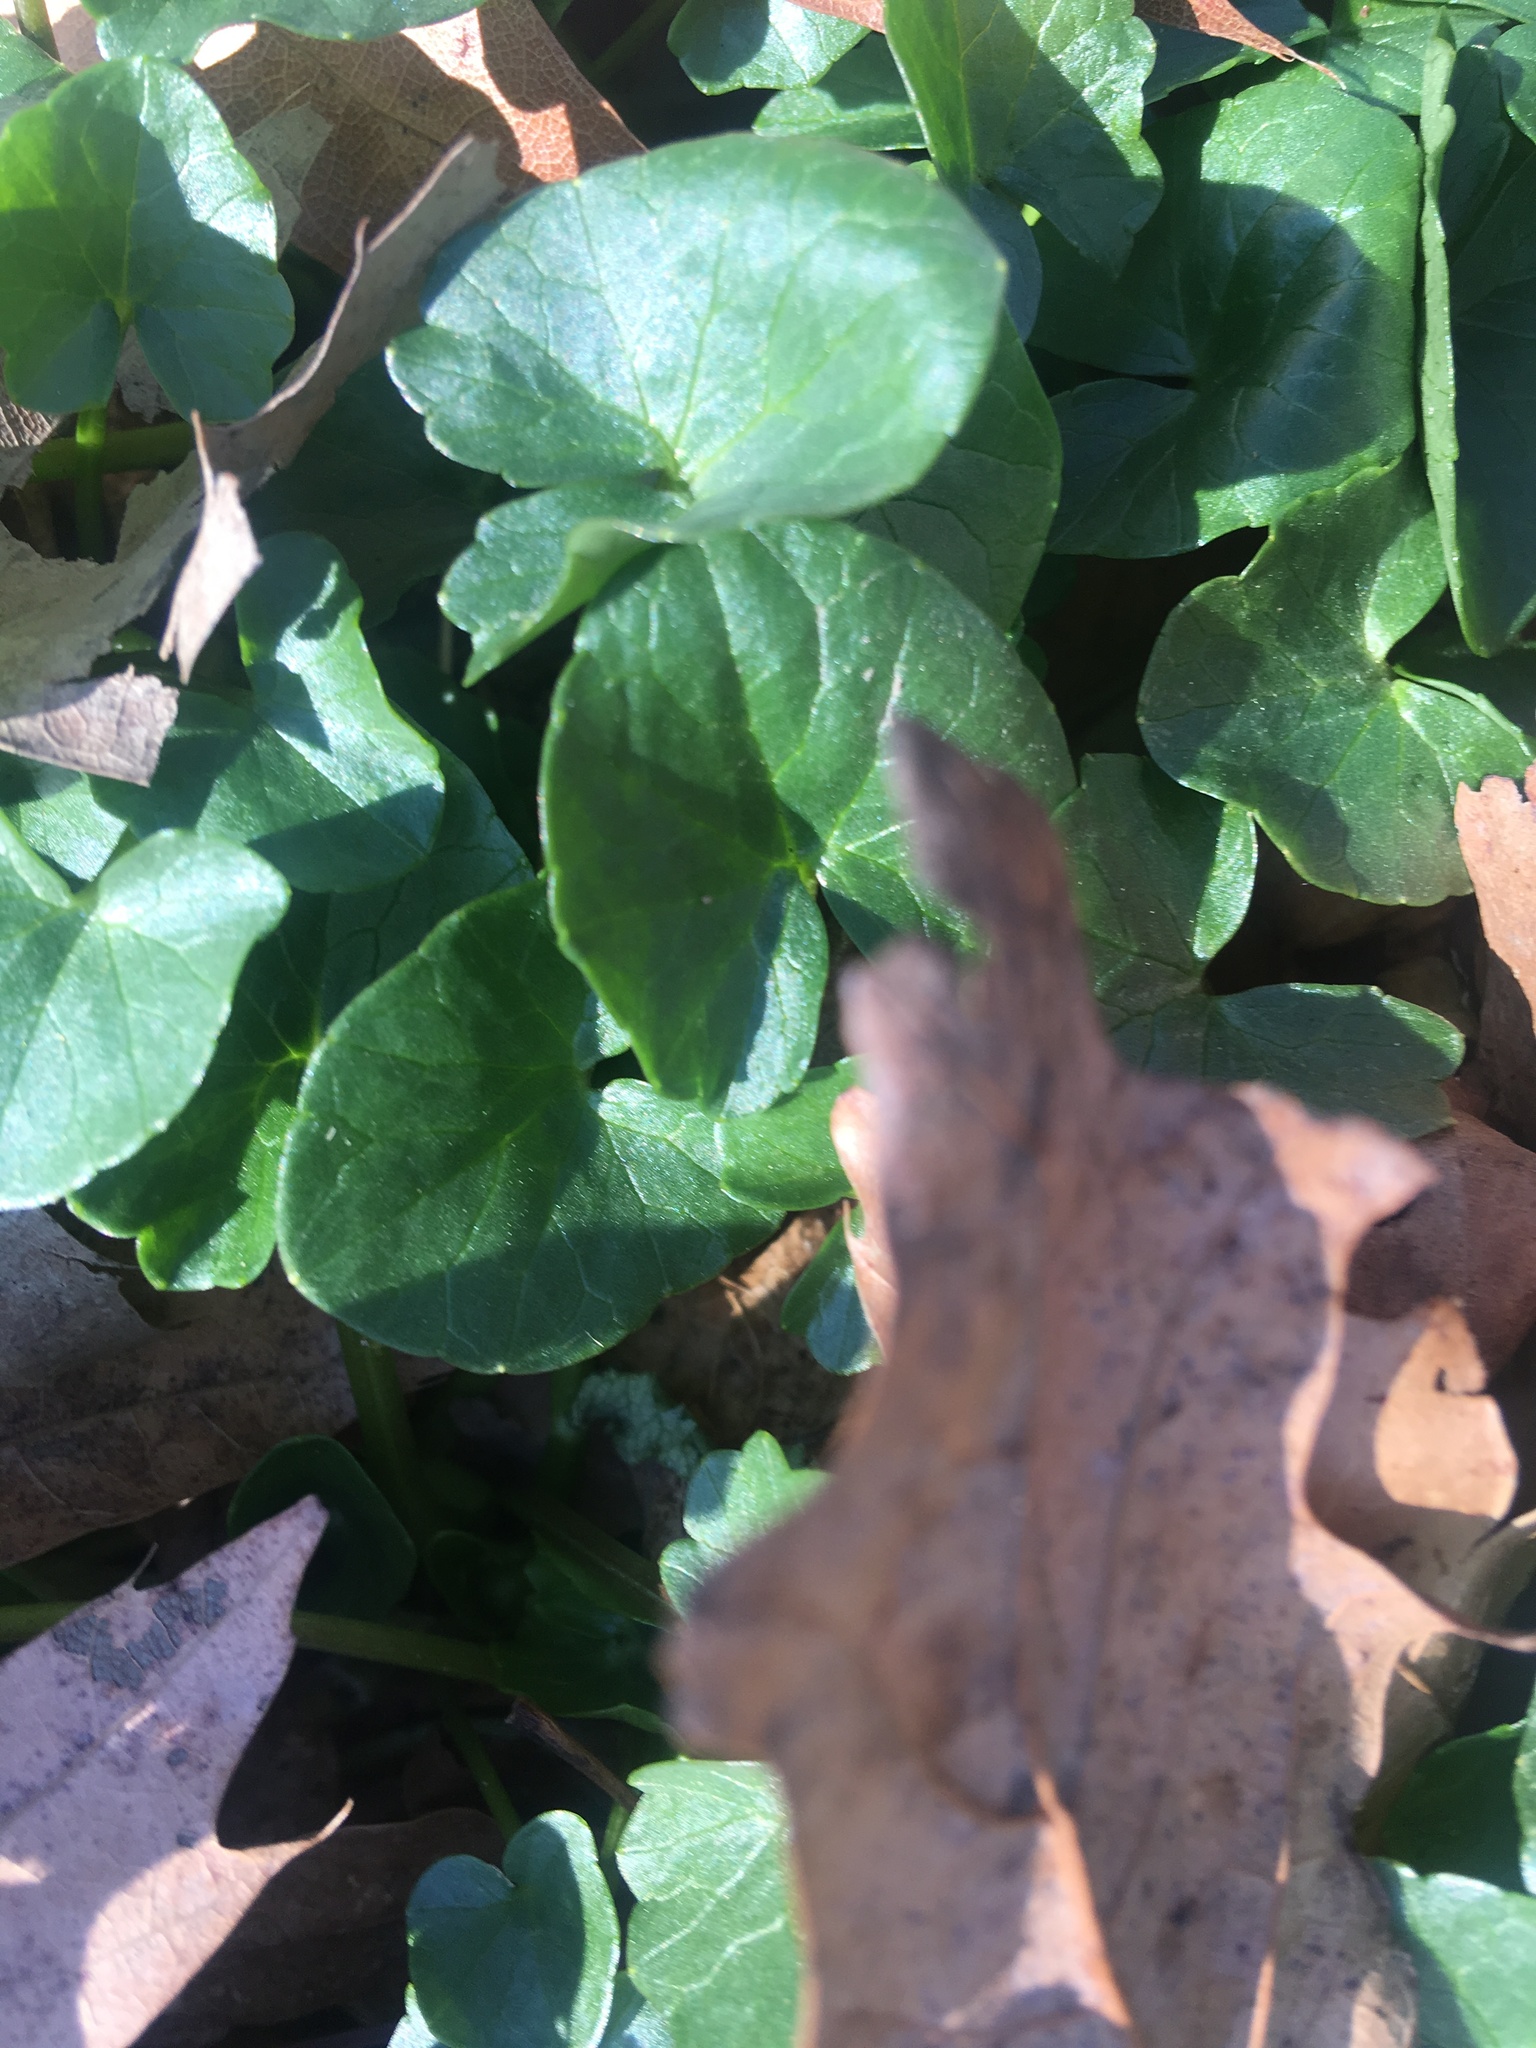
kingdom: Plantae
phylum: Tracheophyta
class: Magnoliopsida
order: Ranunculales
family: Ranunculaceae
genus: Ficaria
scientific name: Ficaria verna
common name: Lesser celandine
